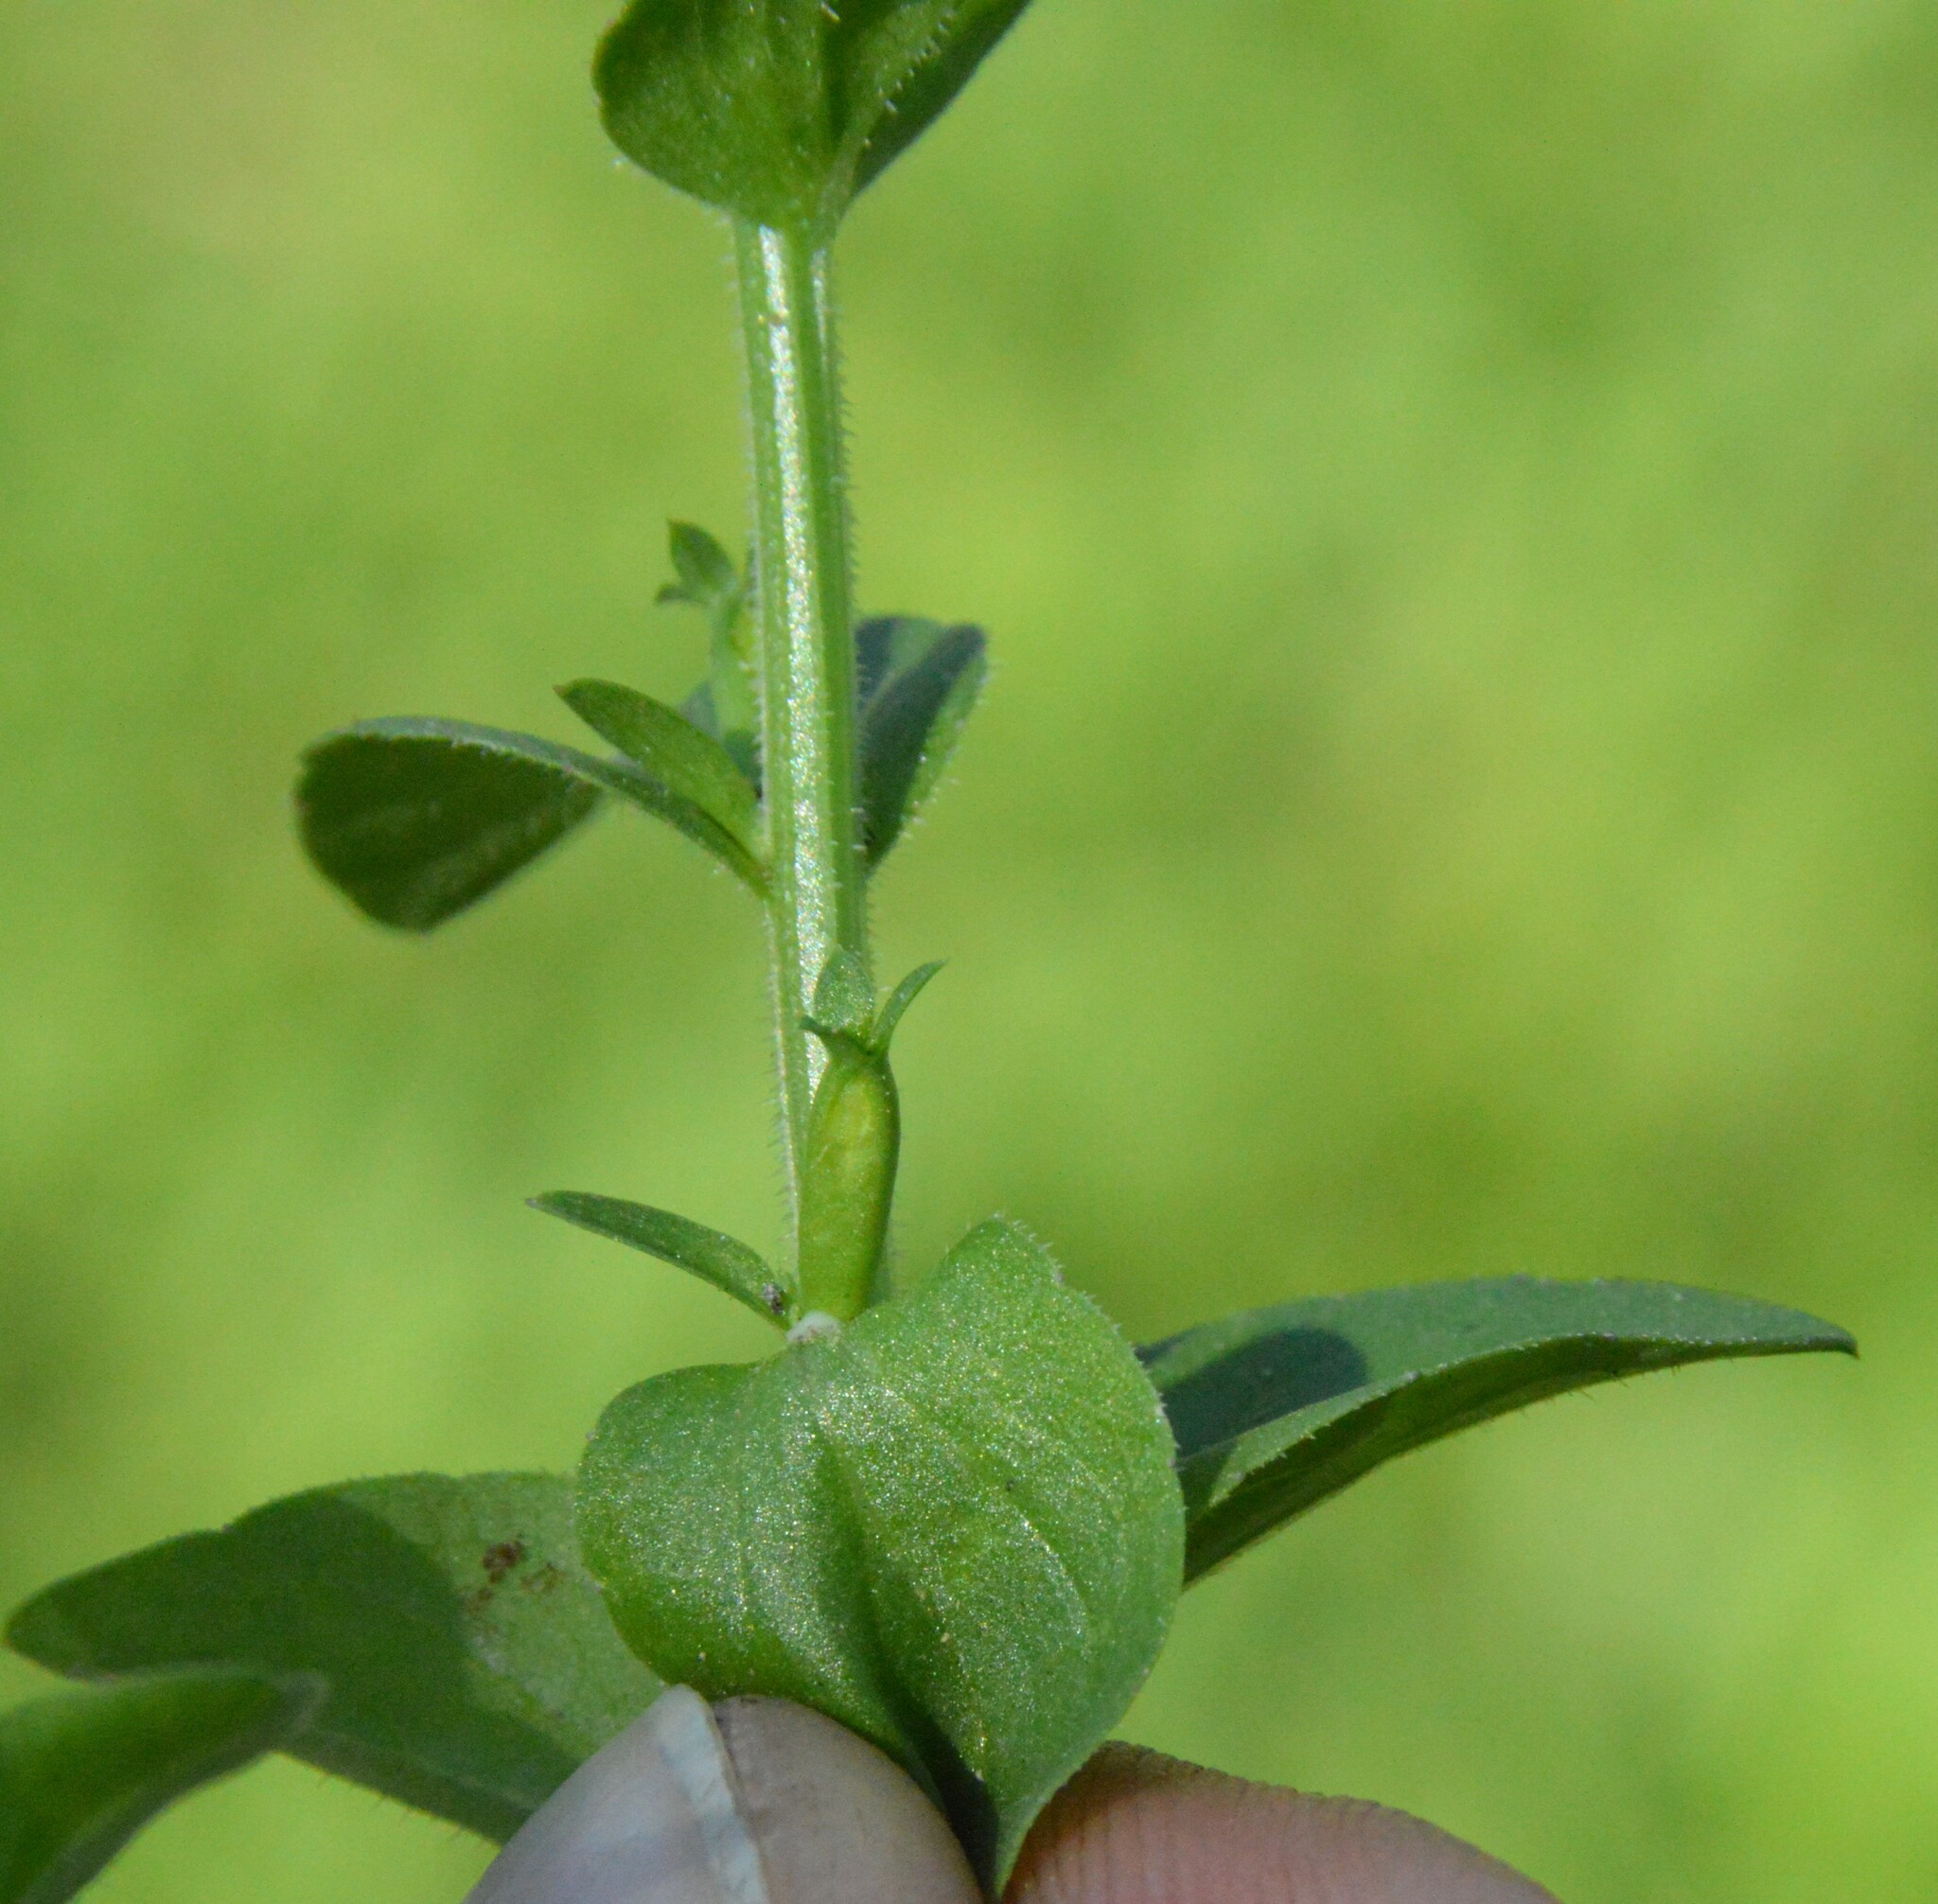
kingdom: Plantae
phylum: Tracheophyta
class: Magnoliopsida
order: Asterales
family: Campanulaceae
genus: Triodanis
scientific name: Triodanis biflora
